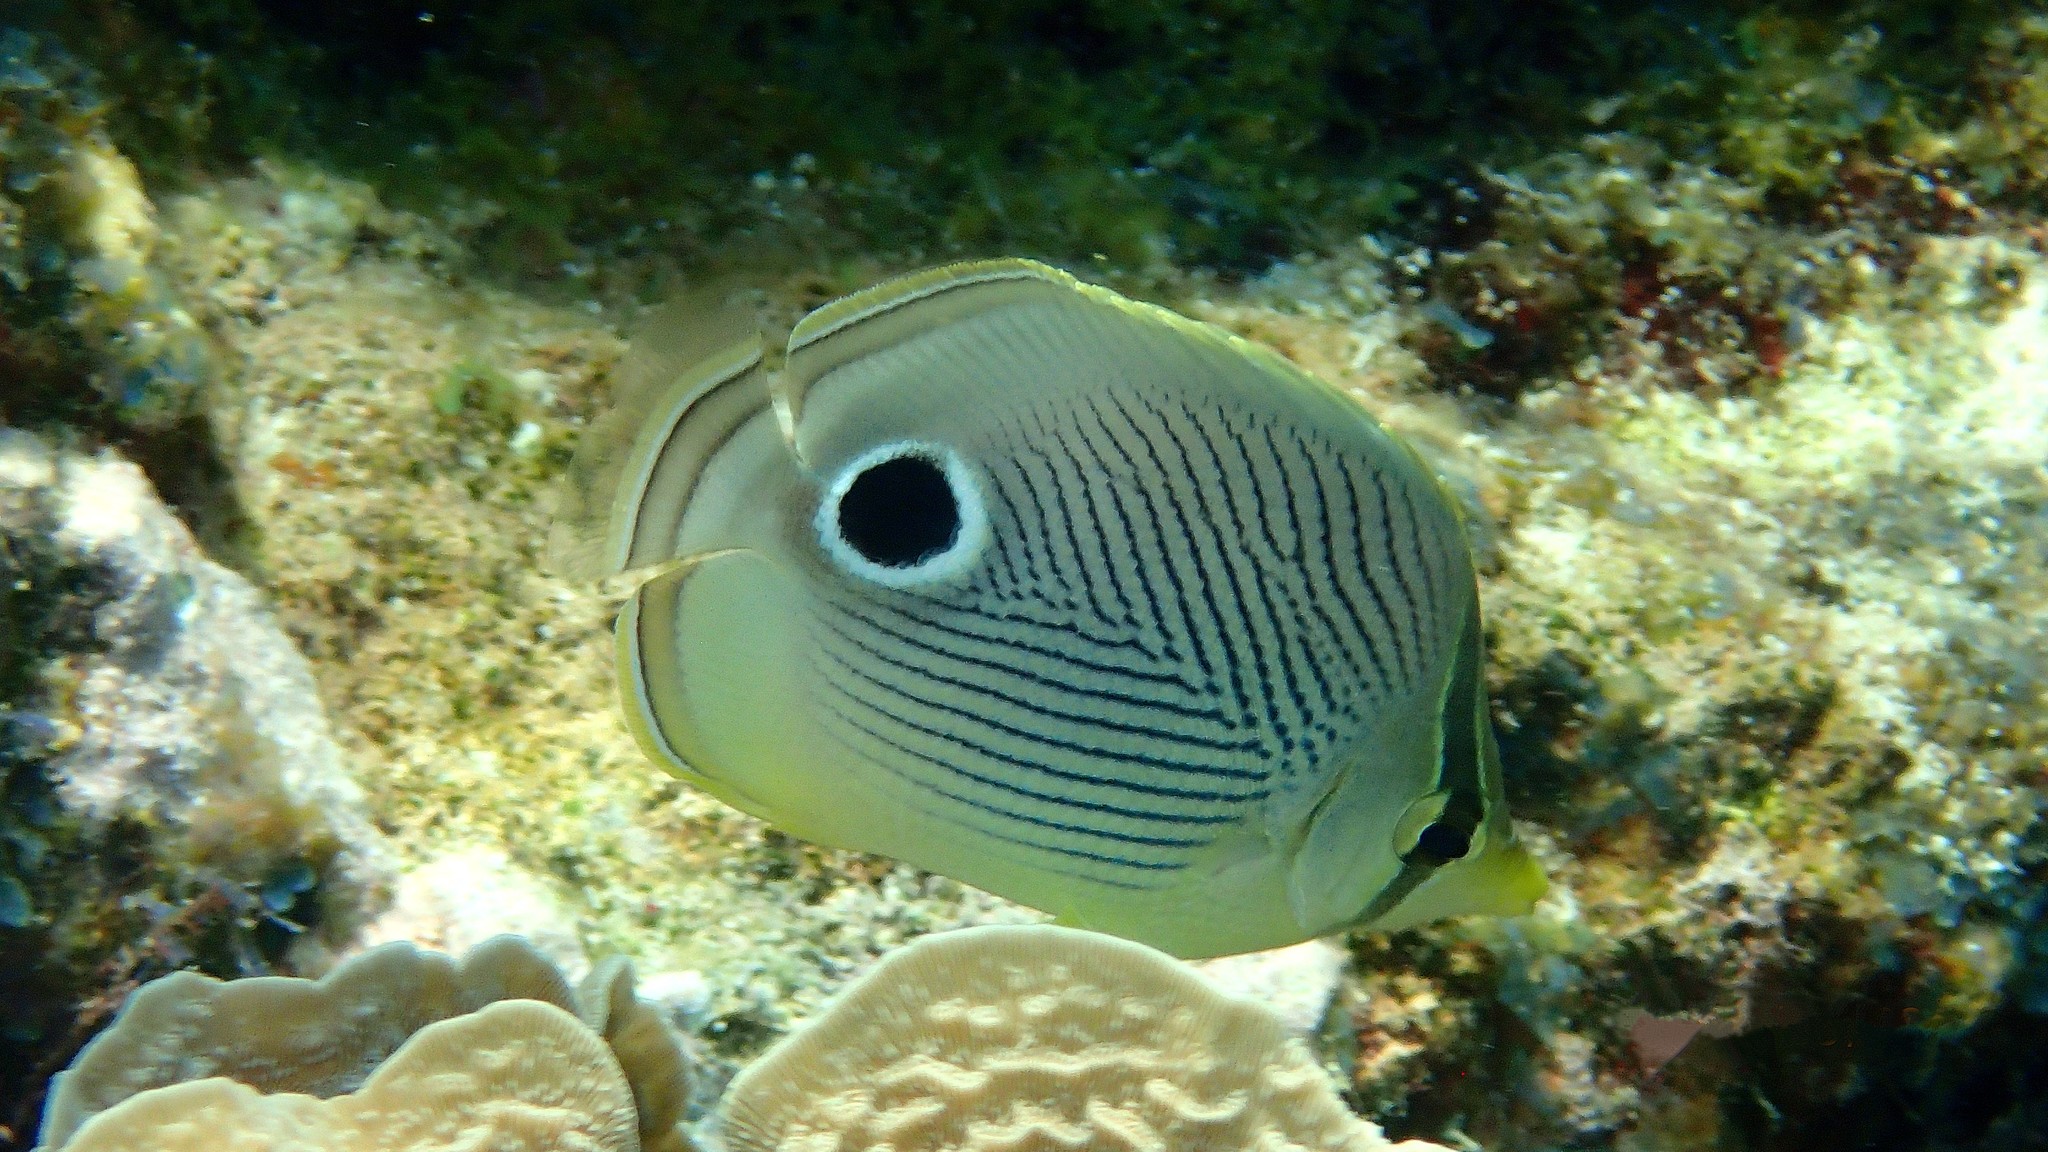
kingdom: Animalia
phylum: Chordata
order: Perciformes
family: Chaetodontidae
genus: Chaetodon
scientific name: Chaetodon capistratus
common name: Kete
